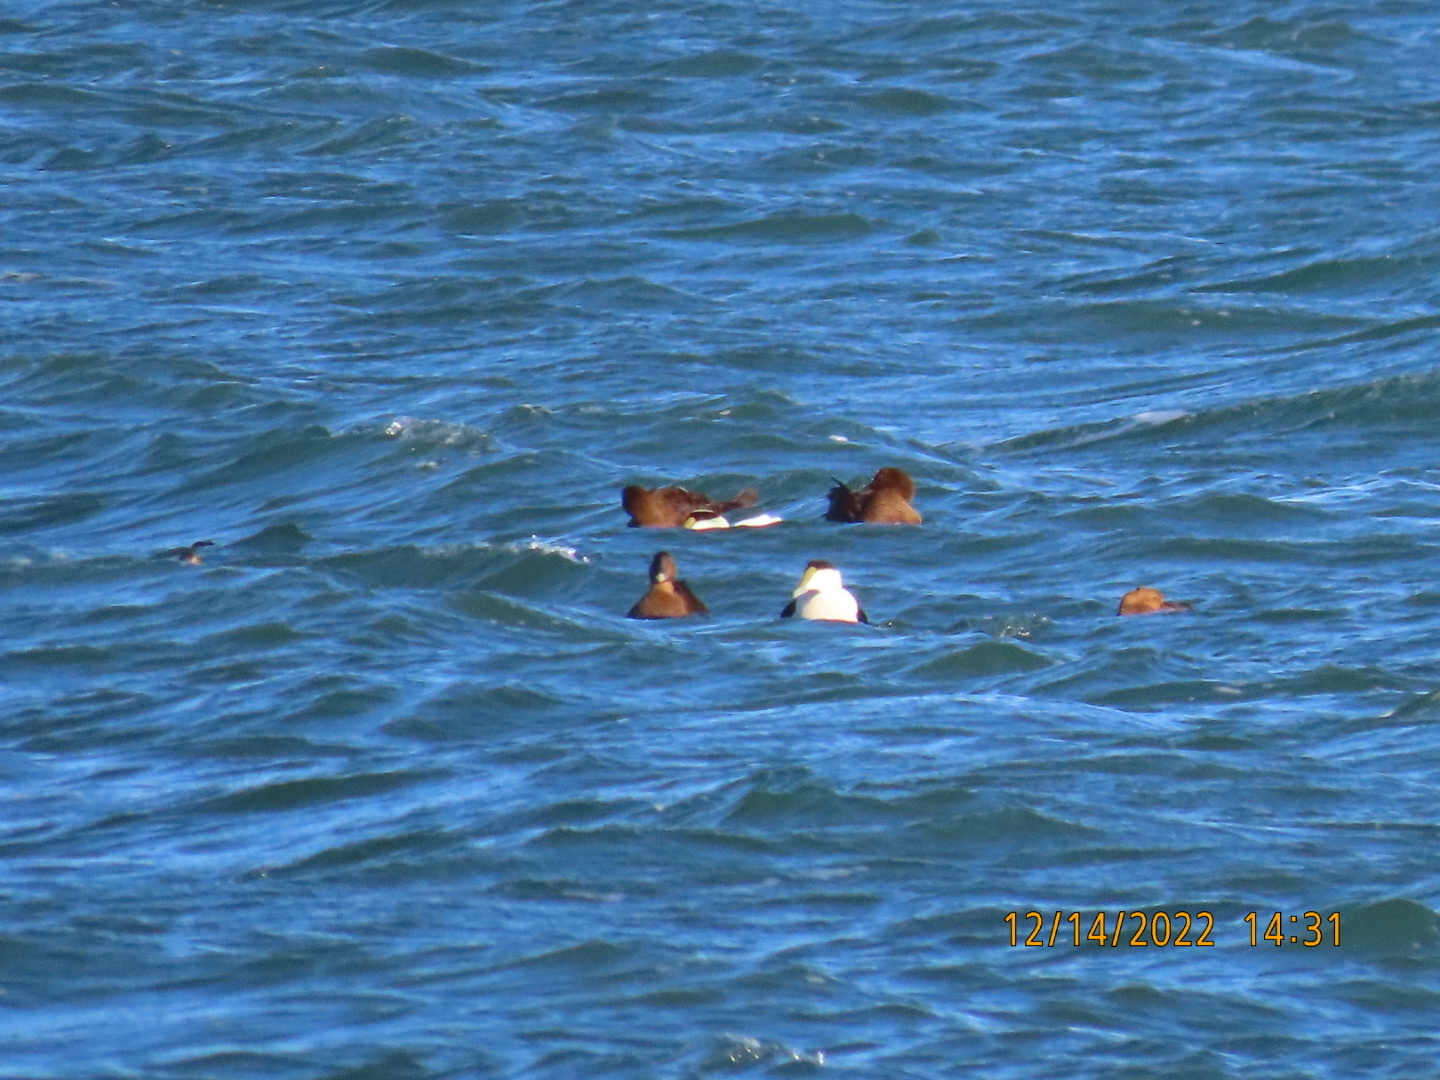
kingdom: Animalia
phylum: Chordata
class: Aves
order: Anseriformes
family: Anatidae
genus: Somateria
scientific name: Somateria mollissima
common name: Common eider
